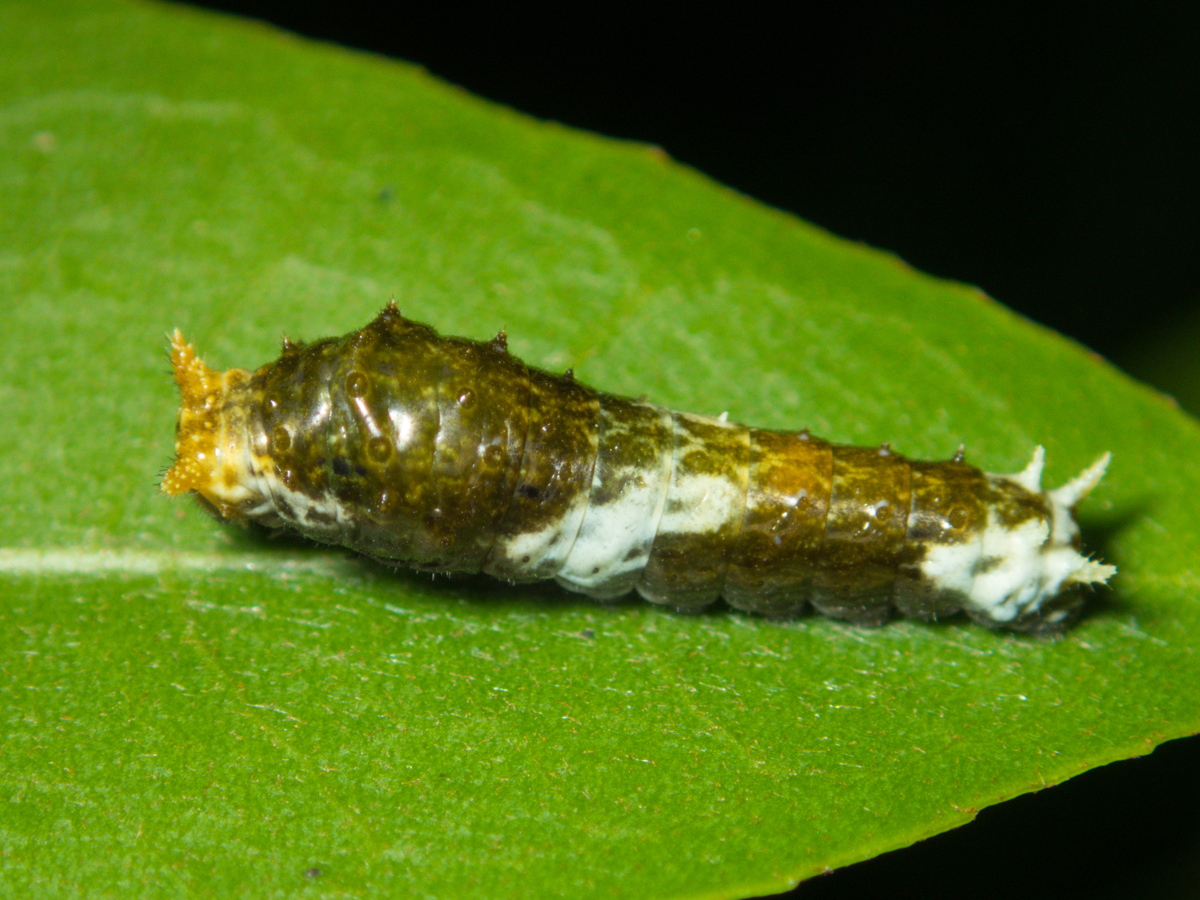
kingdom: Animalia
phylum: Arthropoda
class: Insecta
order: Lepidoptera
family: Papilionidae
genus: Papilio
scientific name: Papilio polytes
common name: Common mormon
